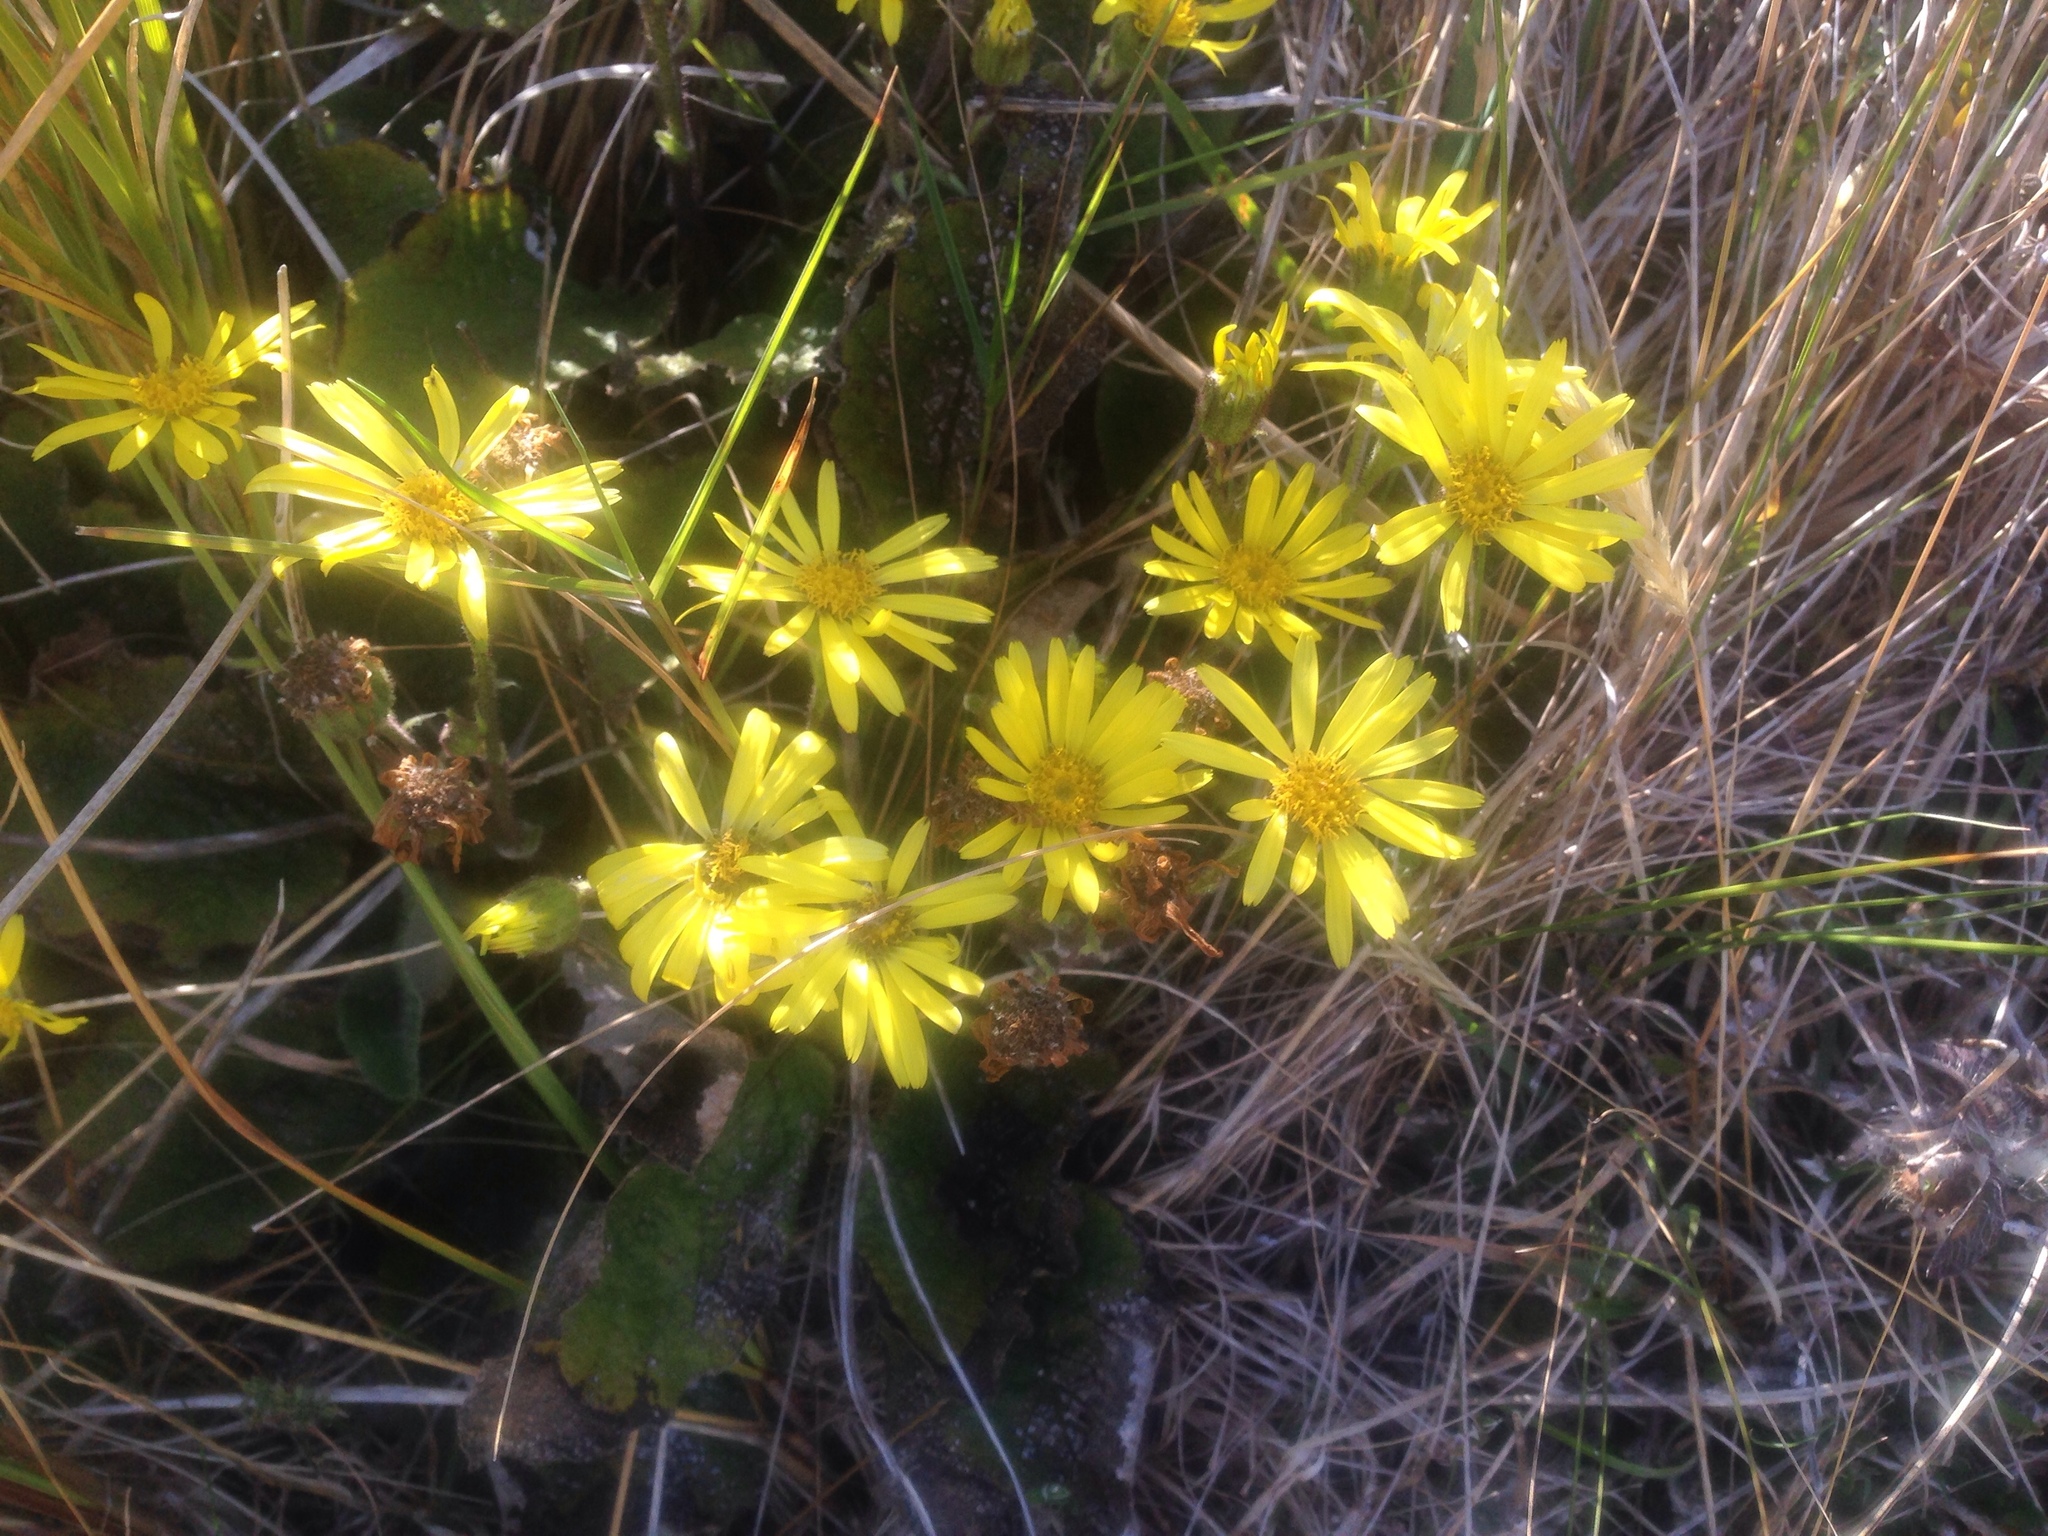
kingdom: Plantae
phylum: Tracheophyta
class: Magnoliopsida
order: Asterales
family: Asteraceae
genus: Brachyglottis
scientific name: Brachyglottis lagopus
